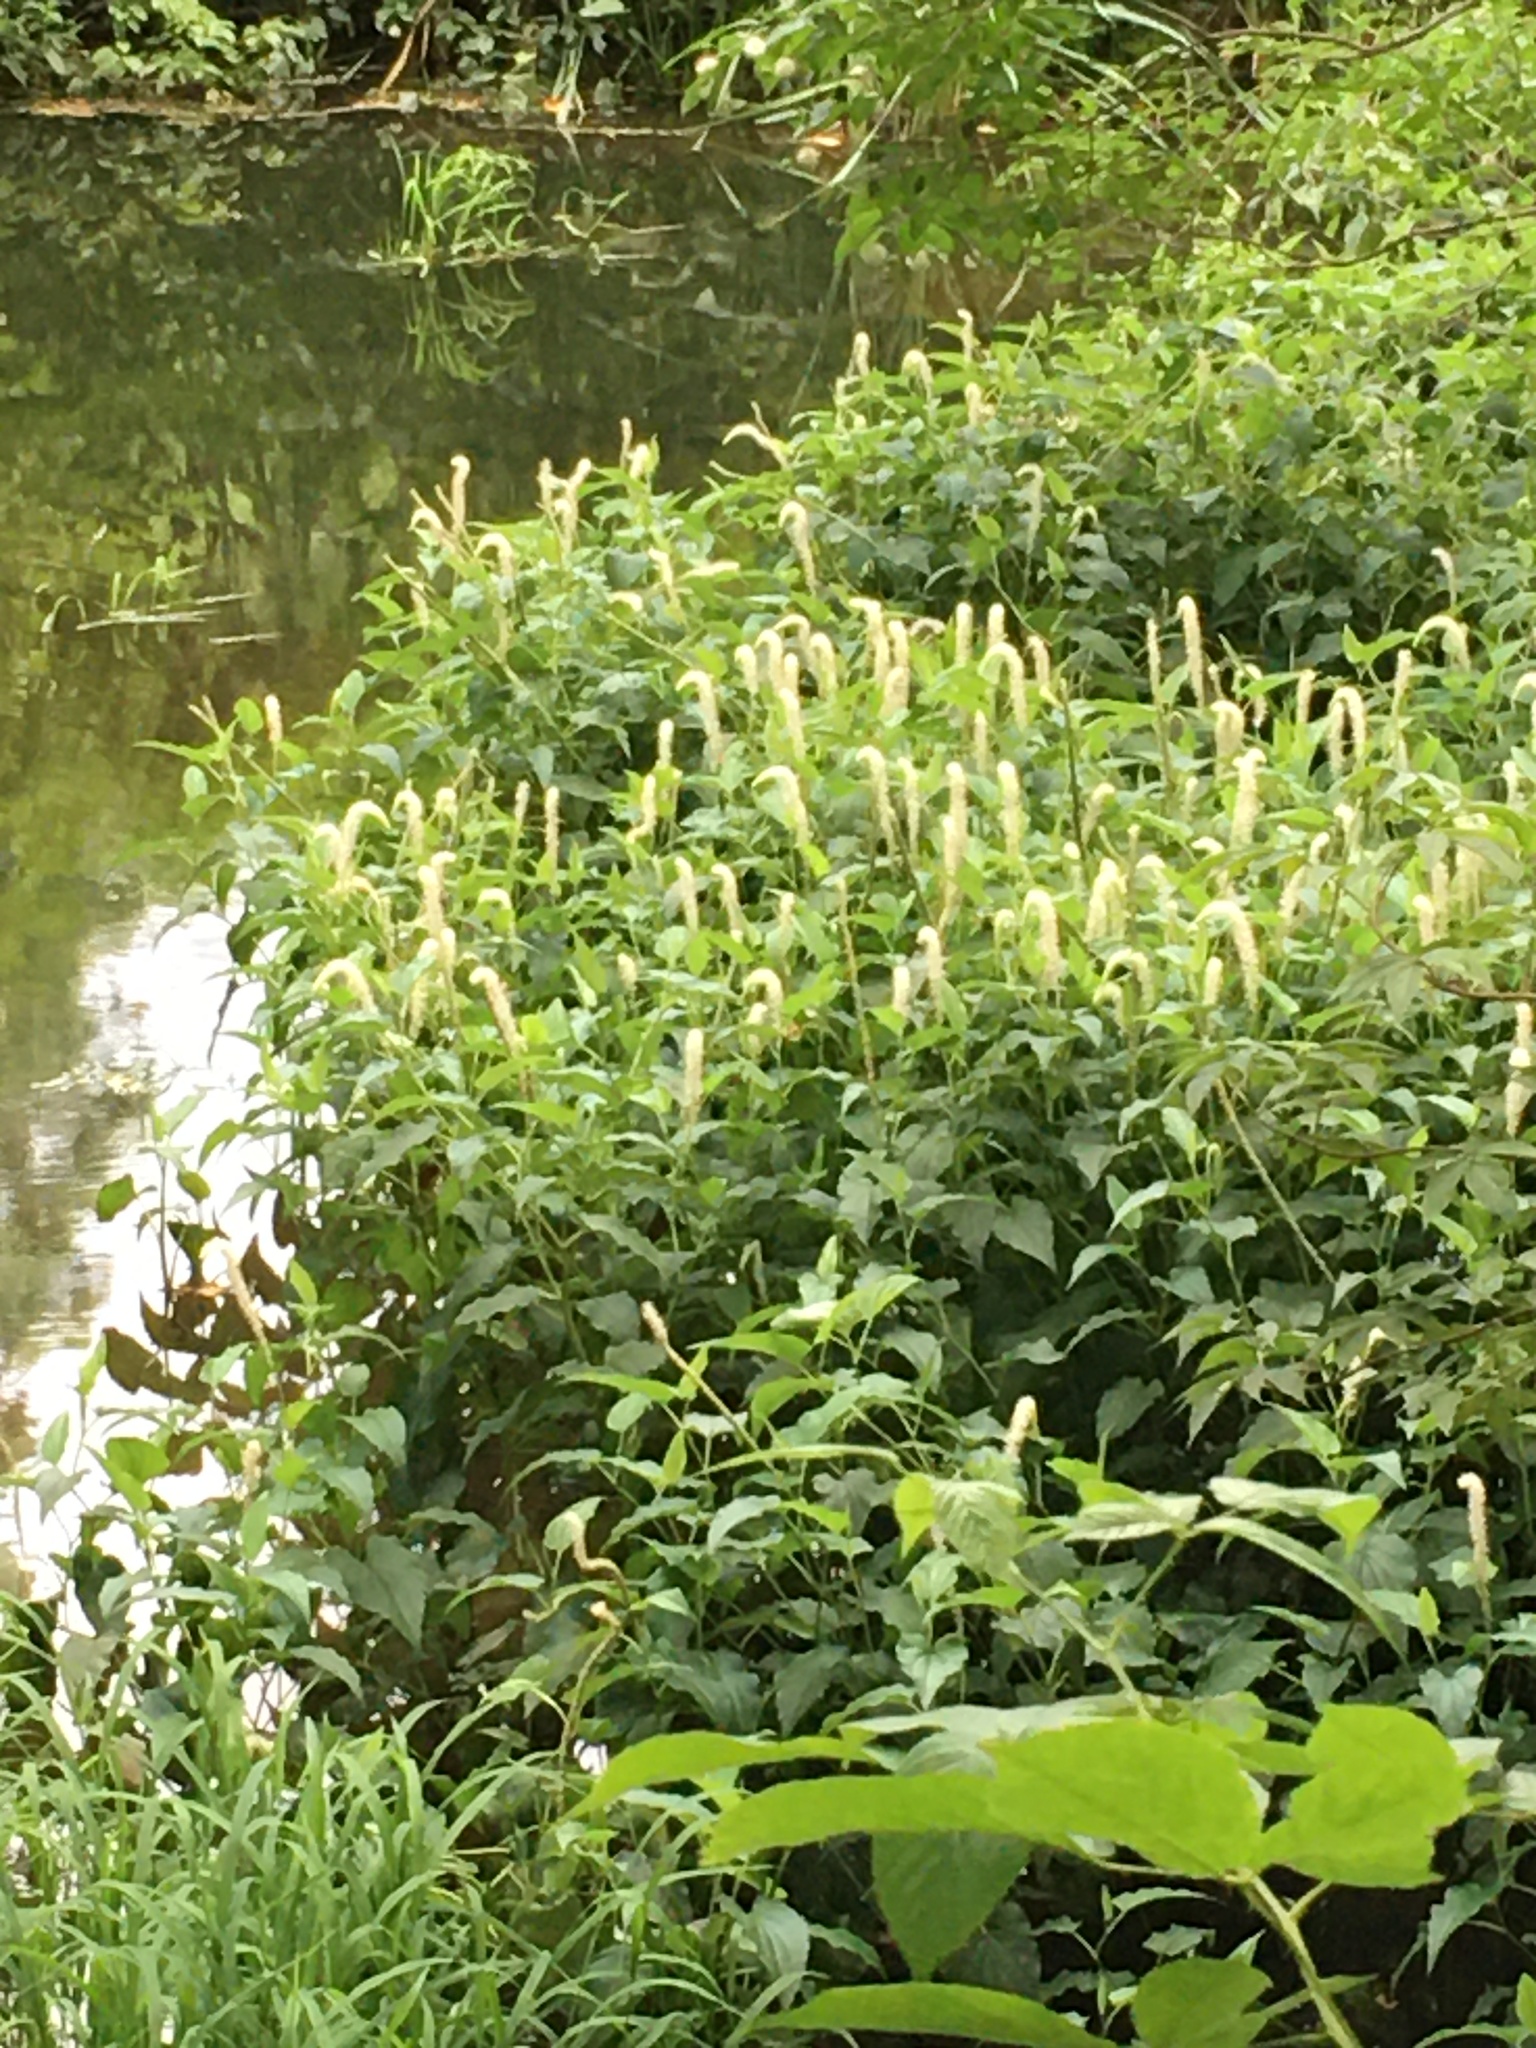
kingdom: Plantae
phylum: Tracheophyta
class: Magnoliopsida
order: Piperales
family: Saururaceae
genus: Saururus
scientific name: Saururus cernuus
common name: Lizard's-tail
